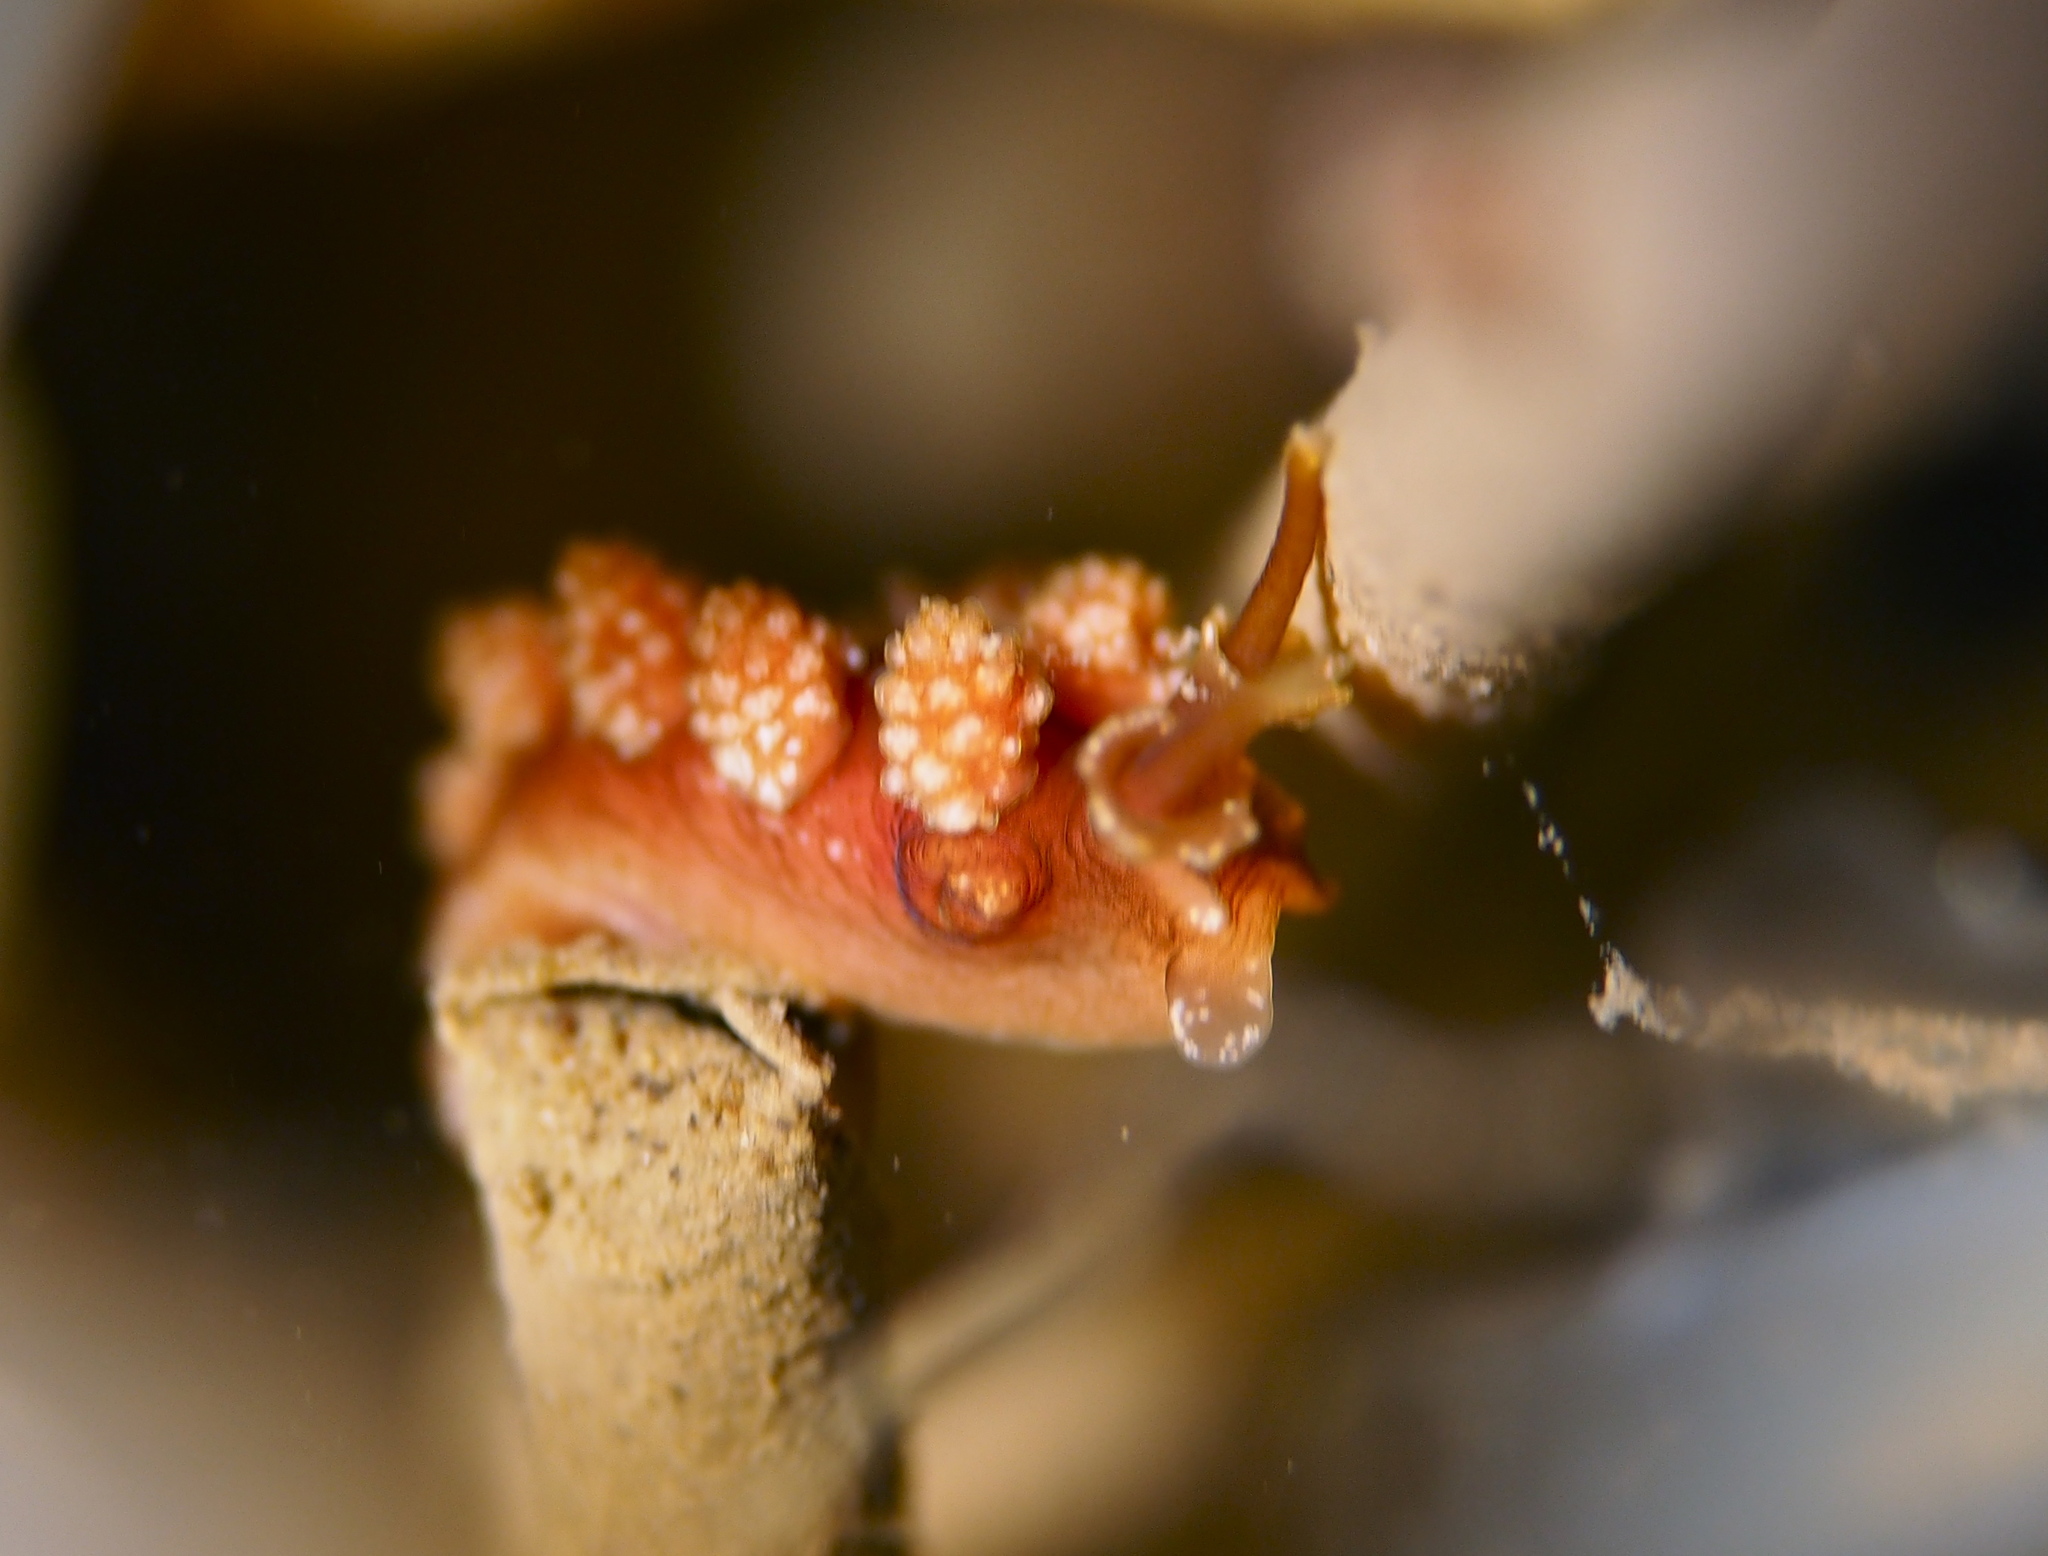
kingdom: Animalia
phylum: Mollusca
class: Gastropoda
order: Nudibranchia
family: Dotidae
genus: Doto
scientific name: Doto fragilis
